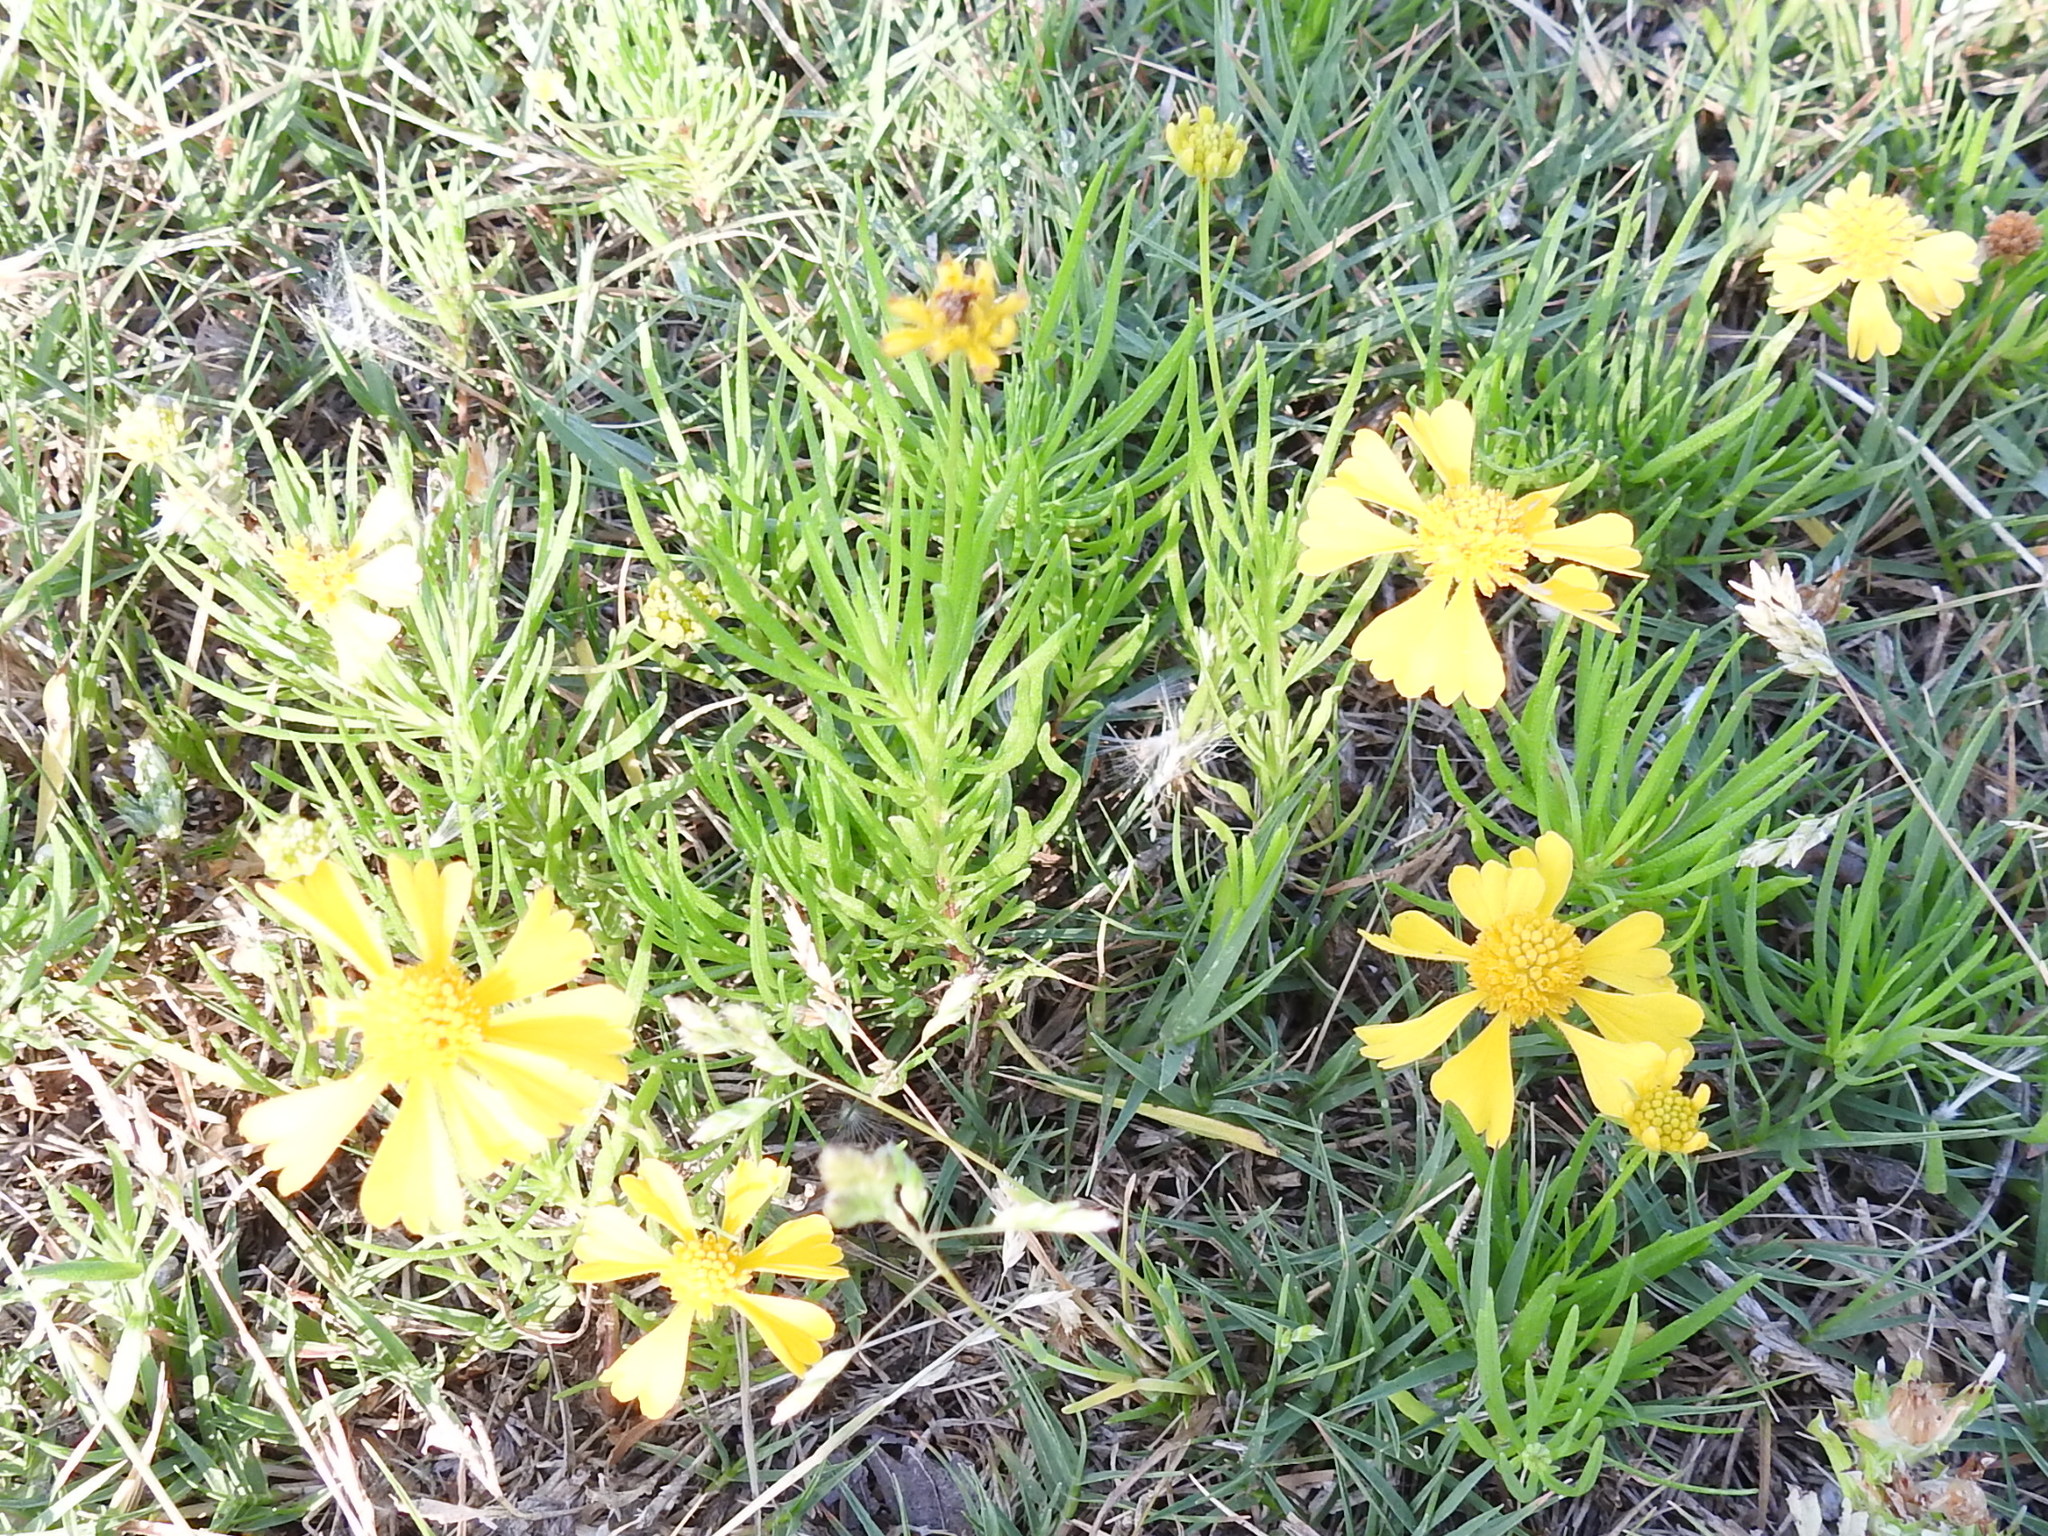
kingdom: Plantae
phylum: Tracheophyta
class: Magnoliopsida
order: Asterales
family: Asteraceae
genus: Helenium
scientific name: Helenium amarum
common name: Bitter sneezeweed
